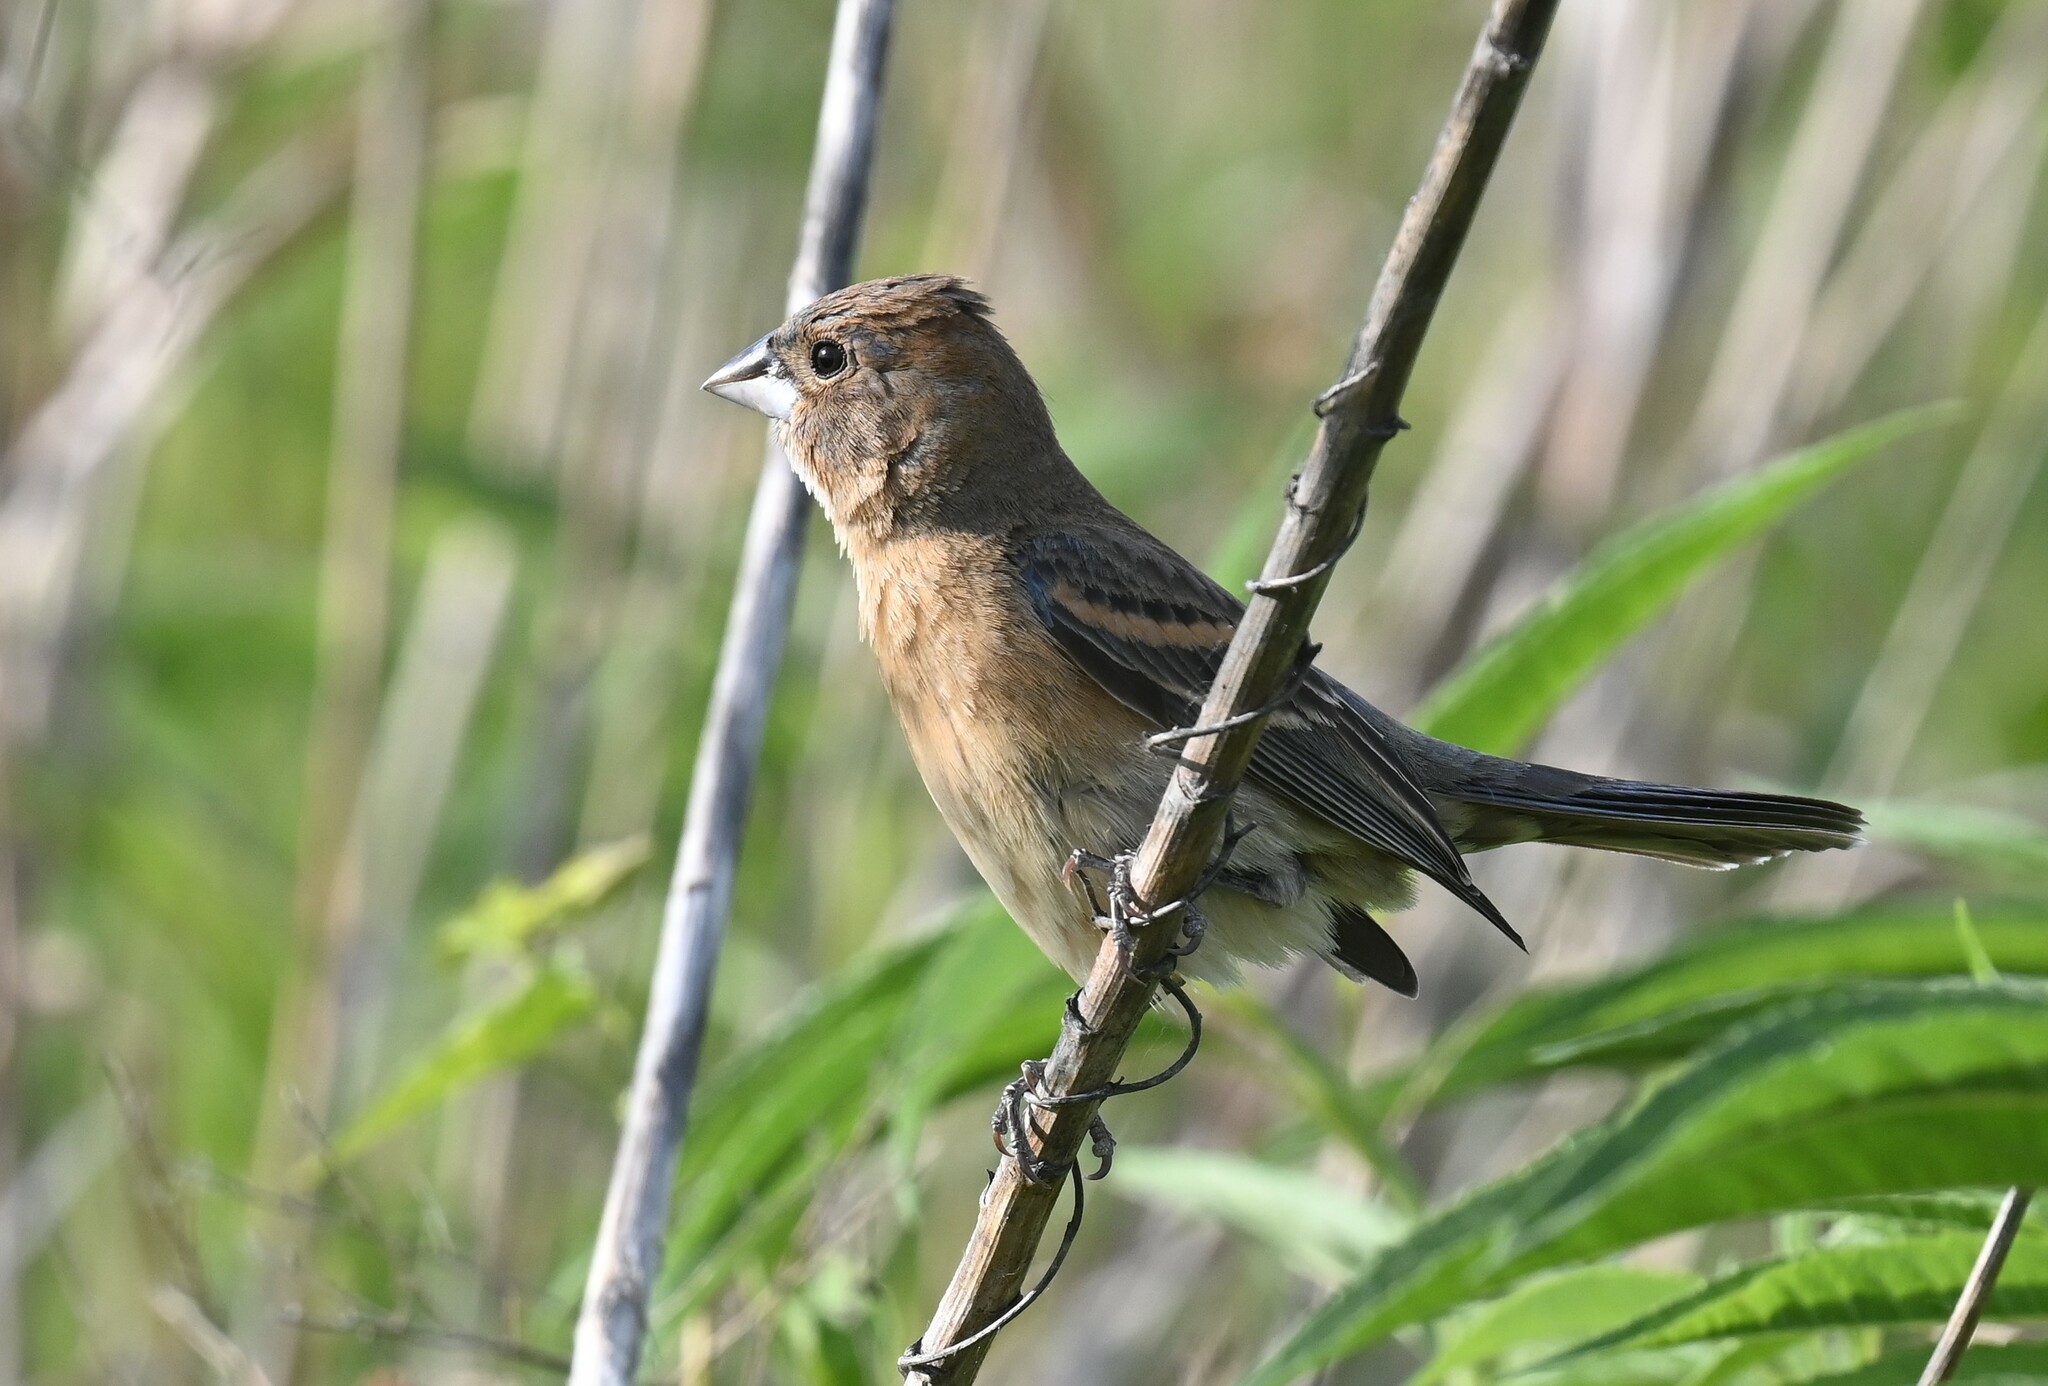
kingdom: Animalia
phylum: Chordata
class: Aves
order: Passeriformes
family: Cardinalidae
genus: Passerina
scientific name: Passerina caerulea
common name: Blue grosbeak
